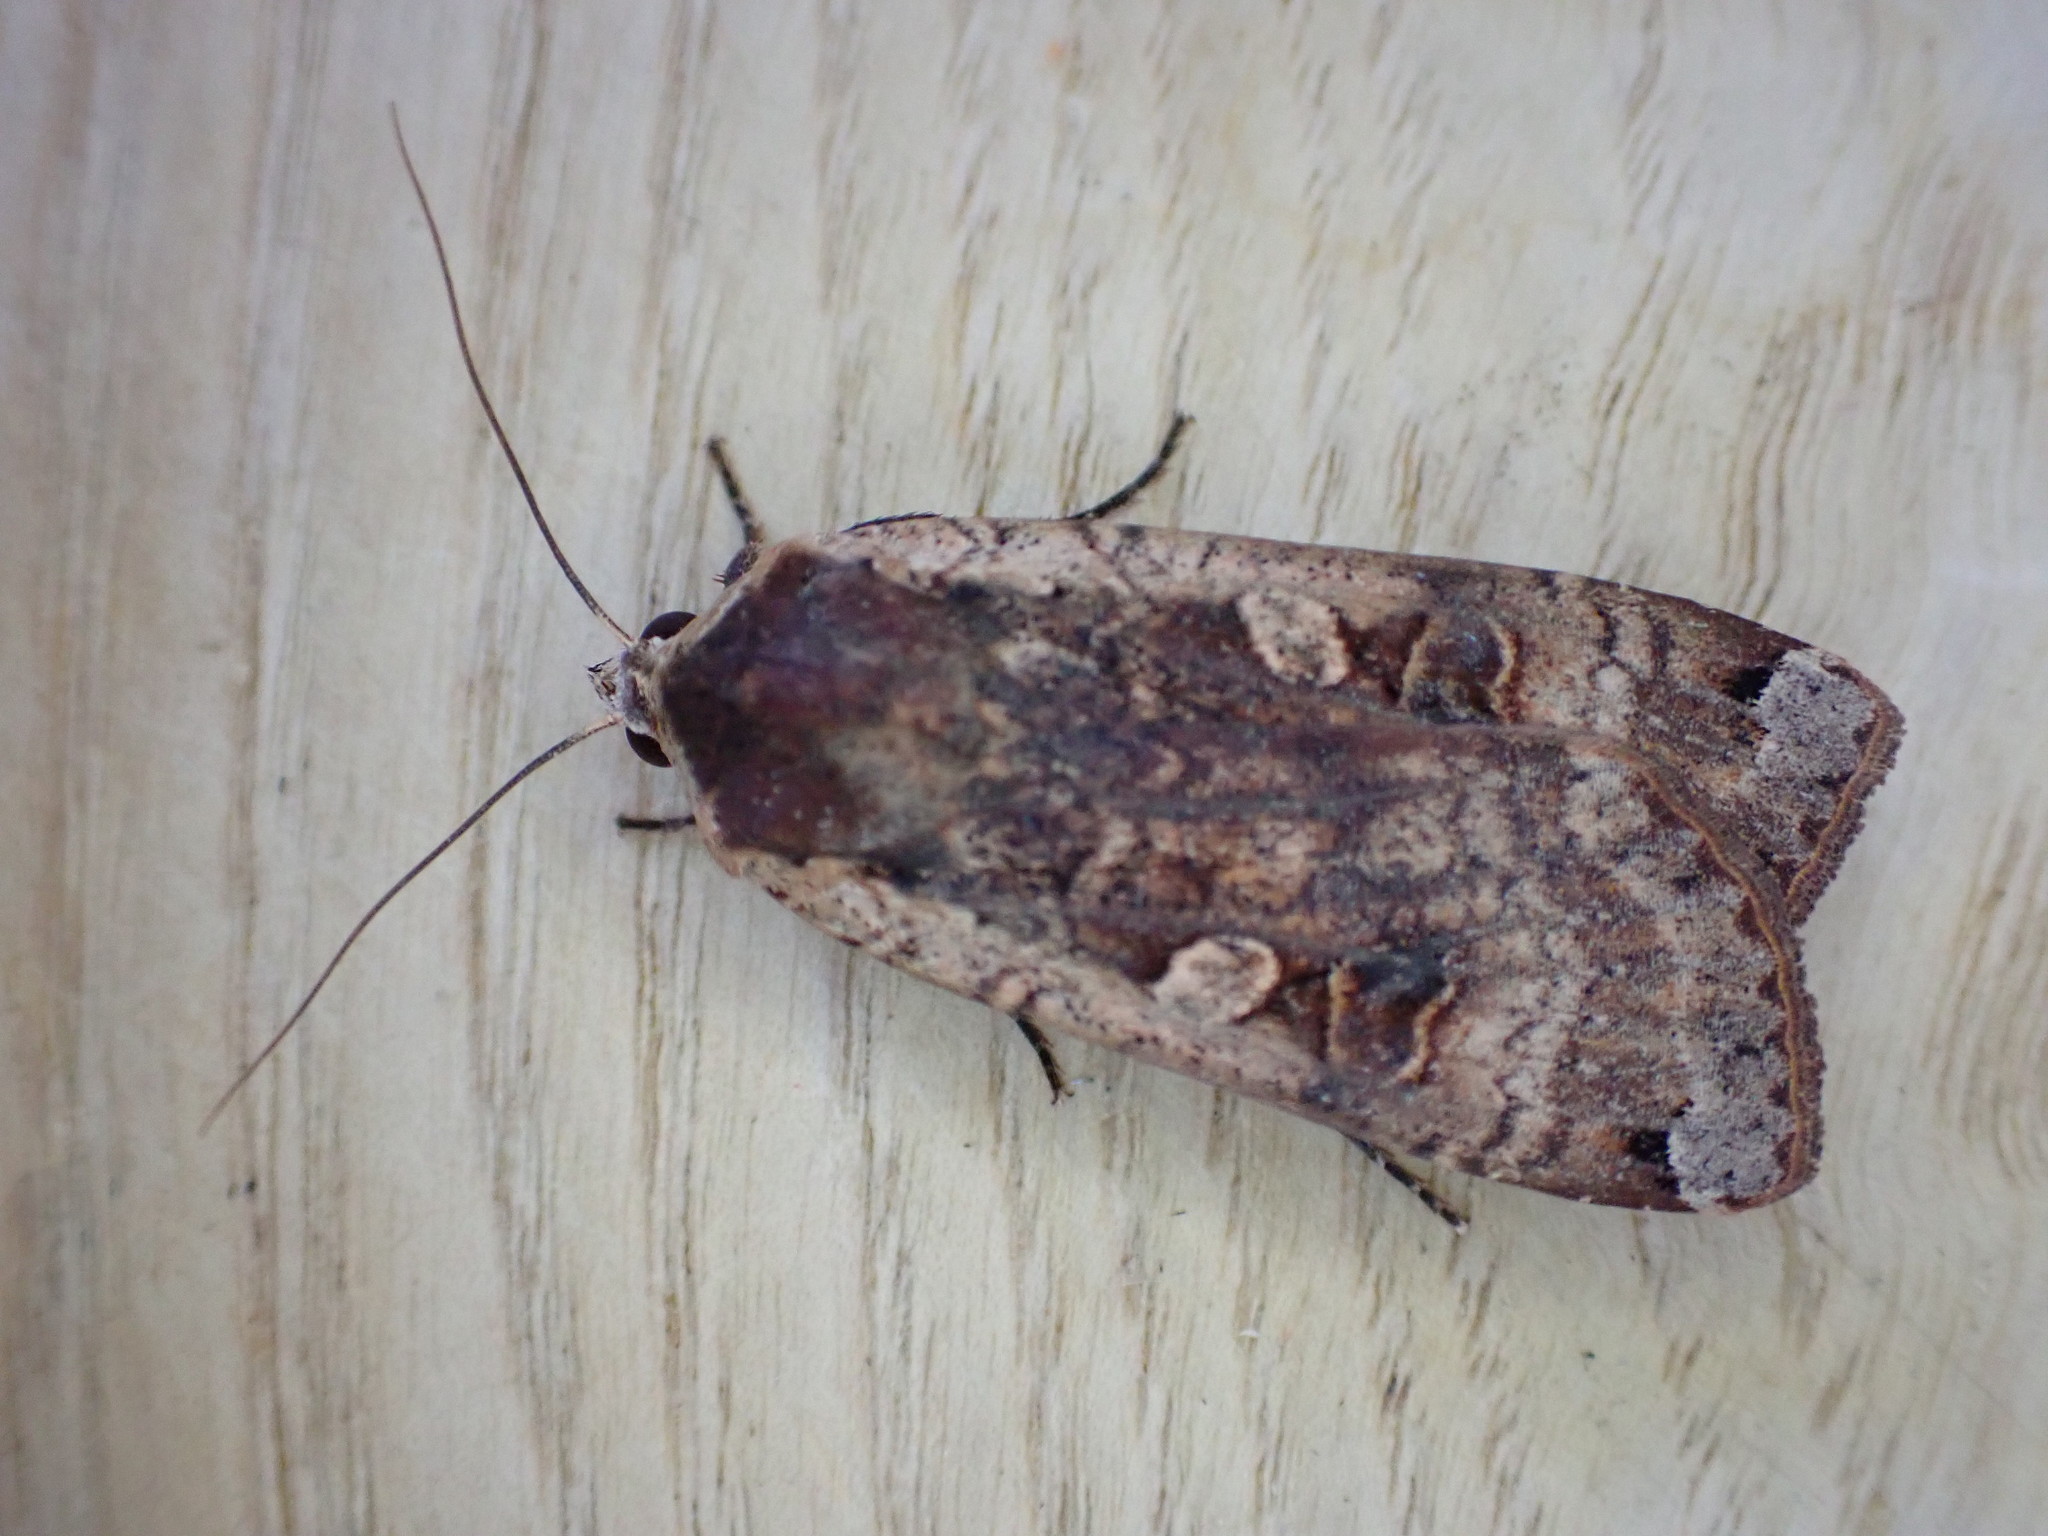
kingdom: Animalia
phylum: Arthropoda
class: Insecta
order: Lepidoptera
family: Noctuidae
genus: Noctua
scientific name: Noctua pronuba
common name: Large yellow underwing
